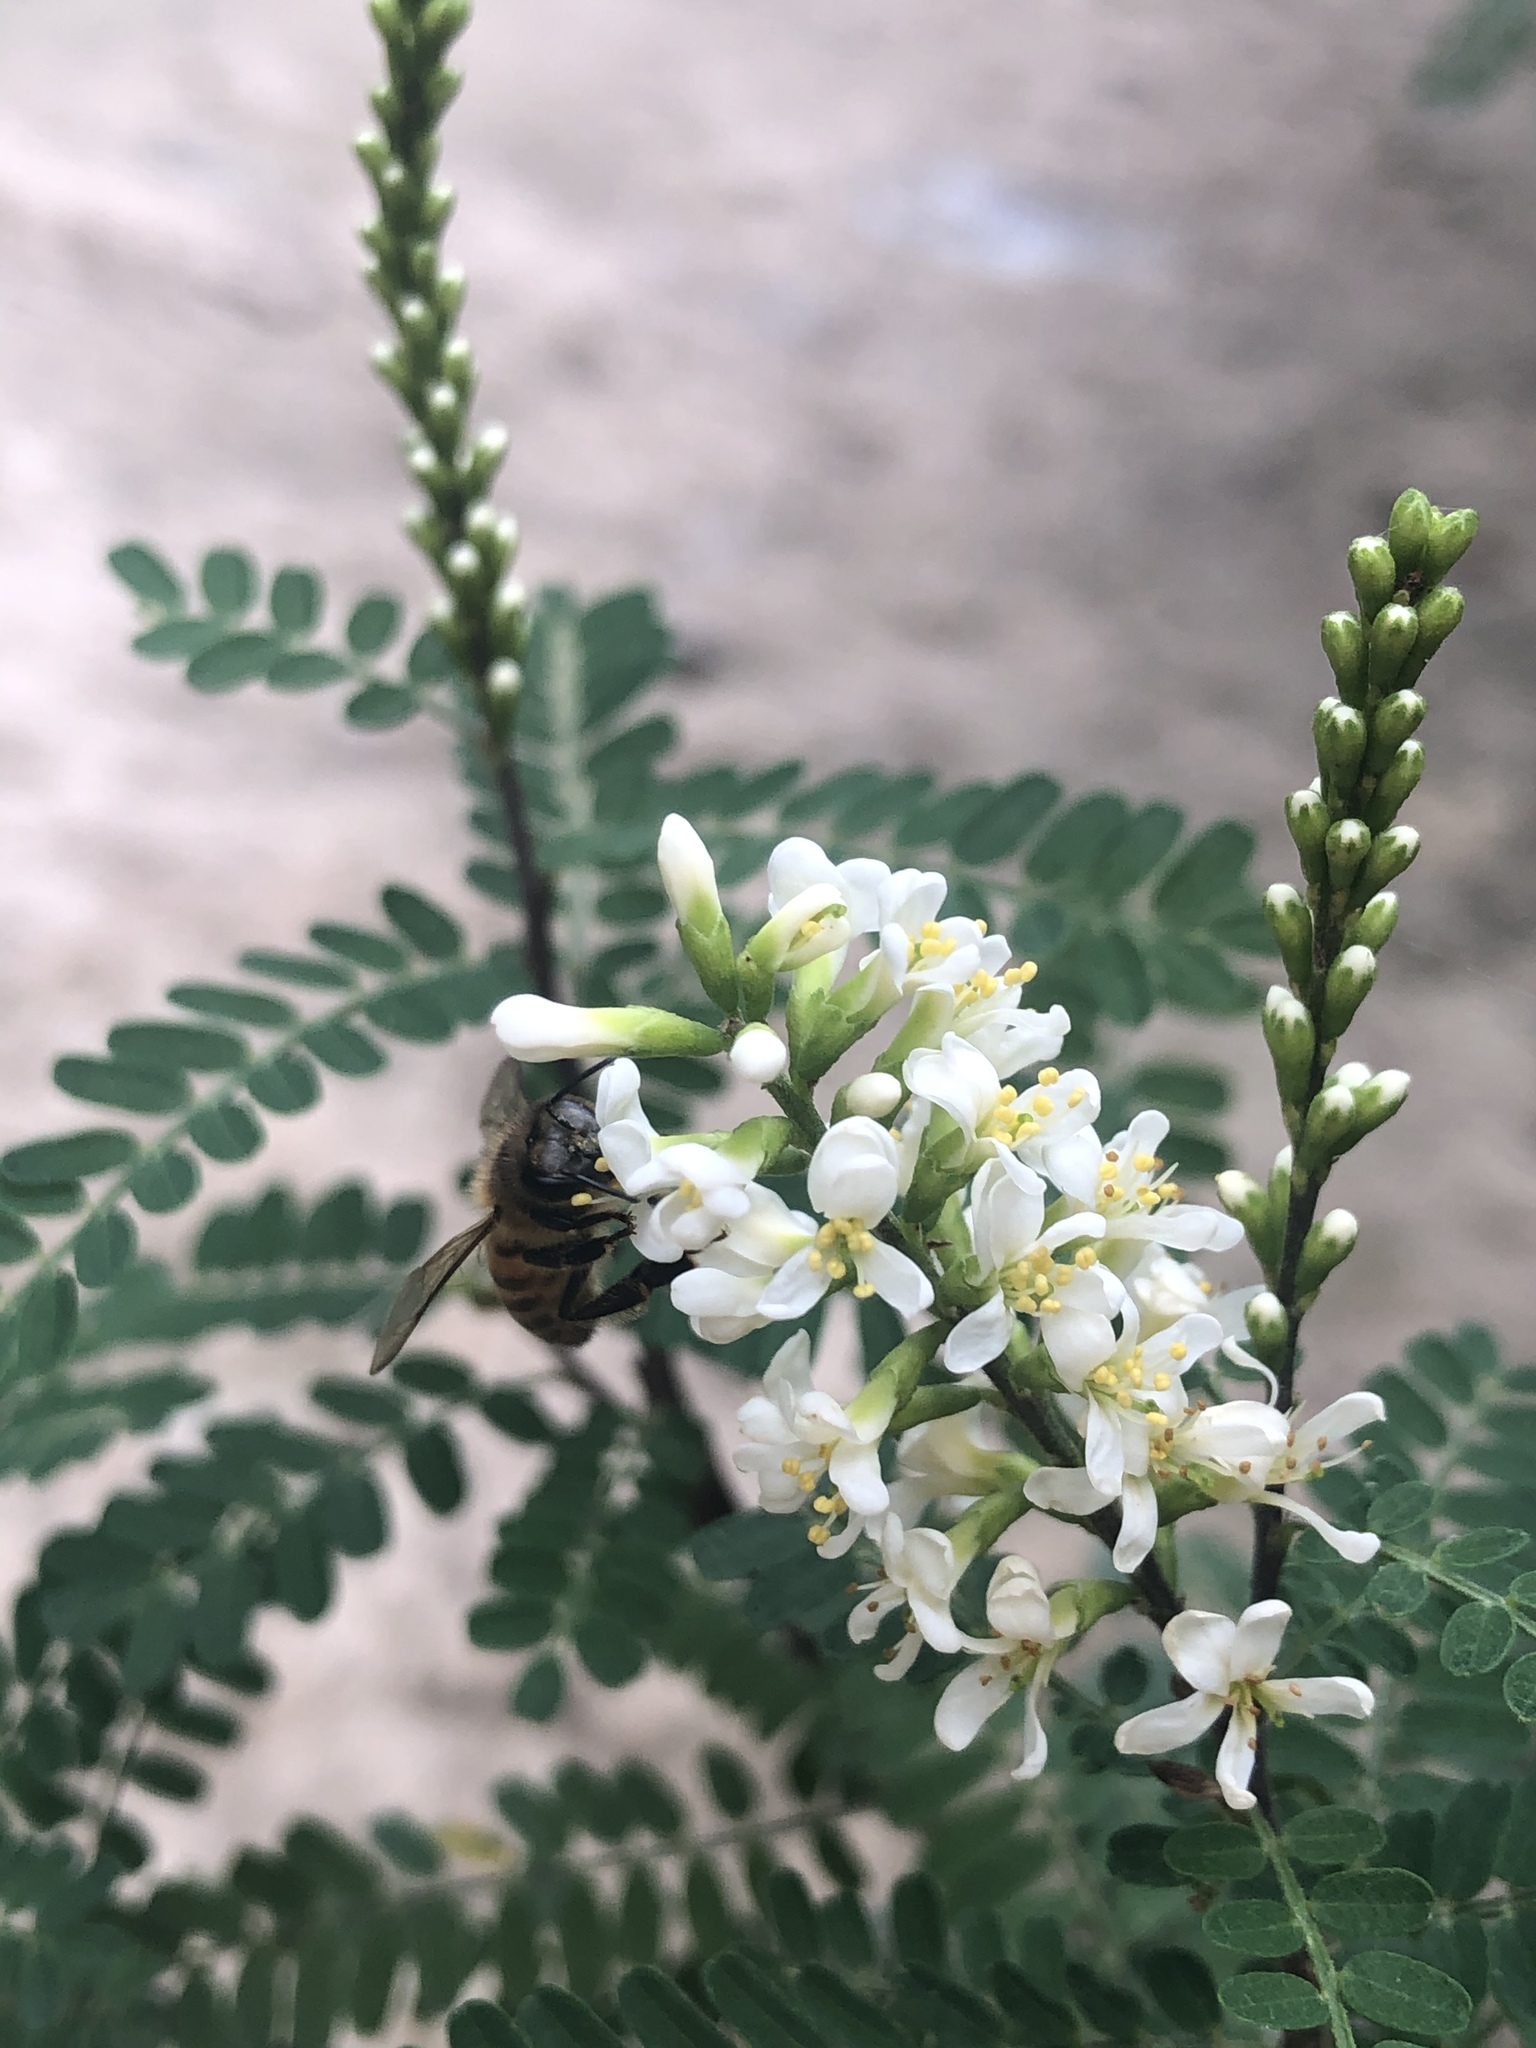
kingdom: Animalia
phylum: Arthropoda
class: Insecta
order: Hymenoptera
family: Apidae
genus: Apis
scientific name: Apis mellifera
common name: Honey bee
